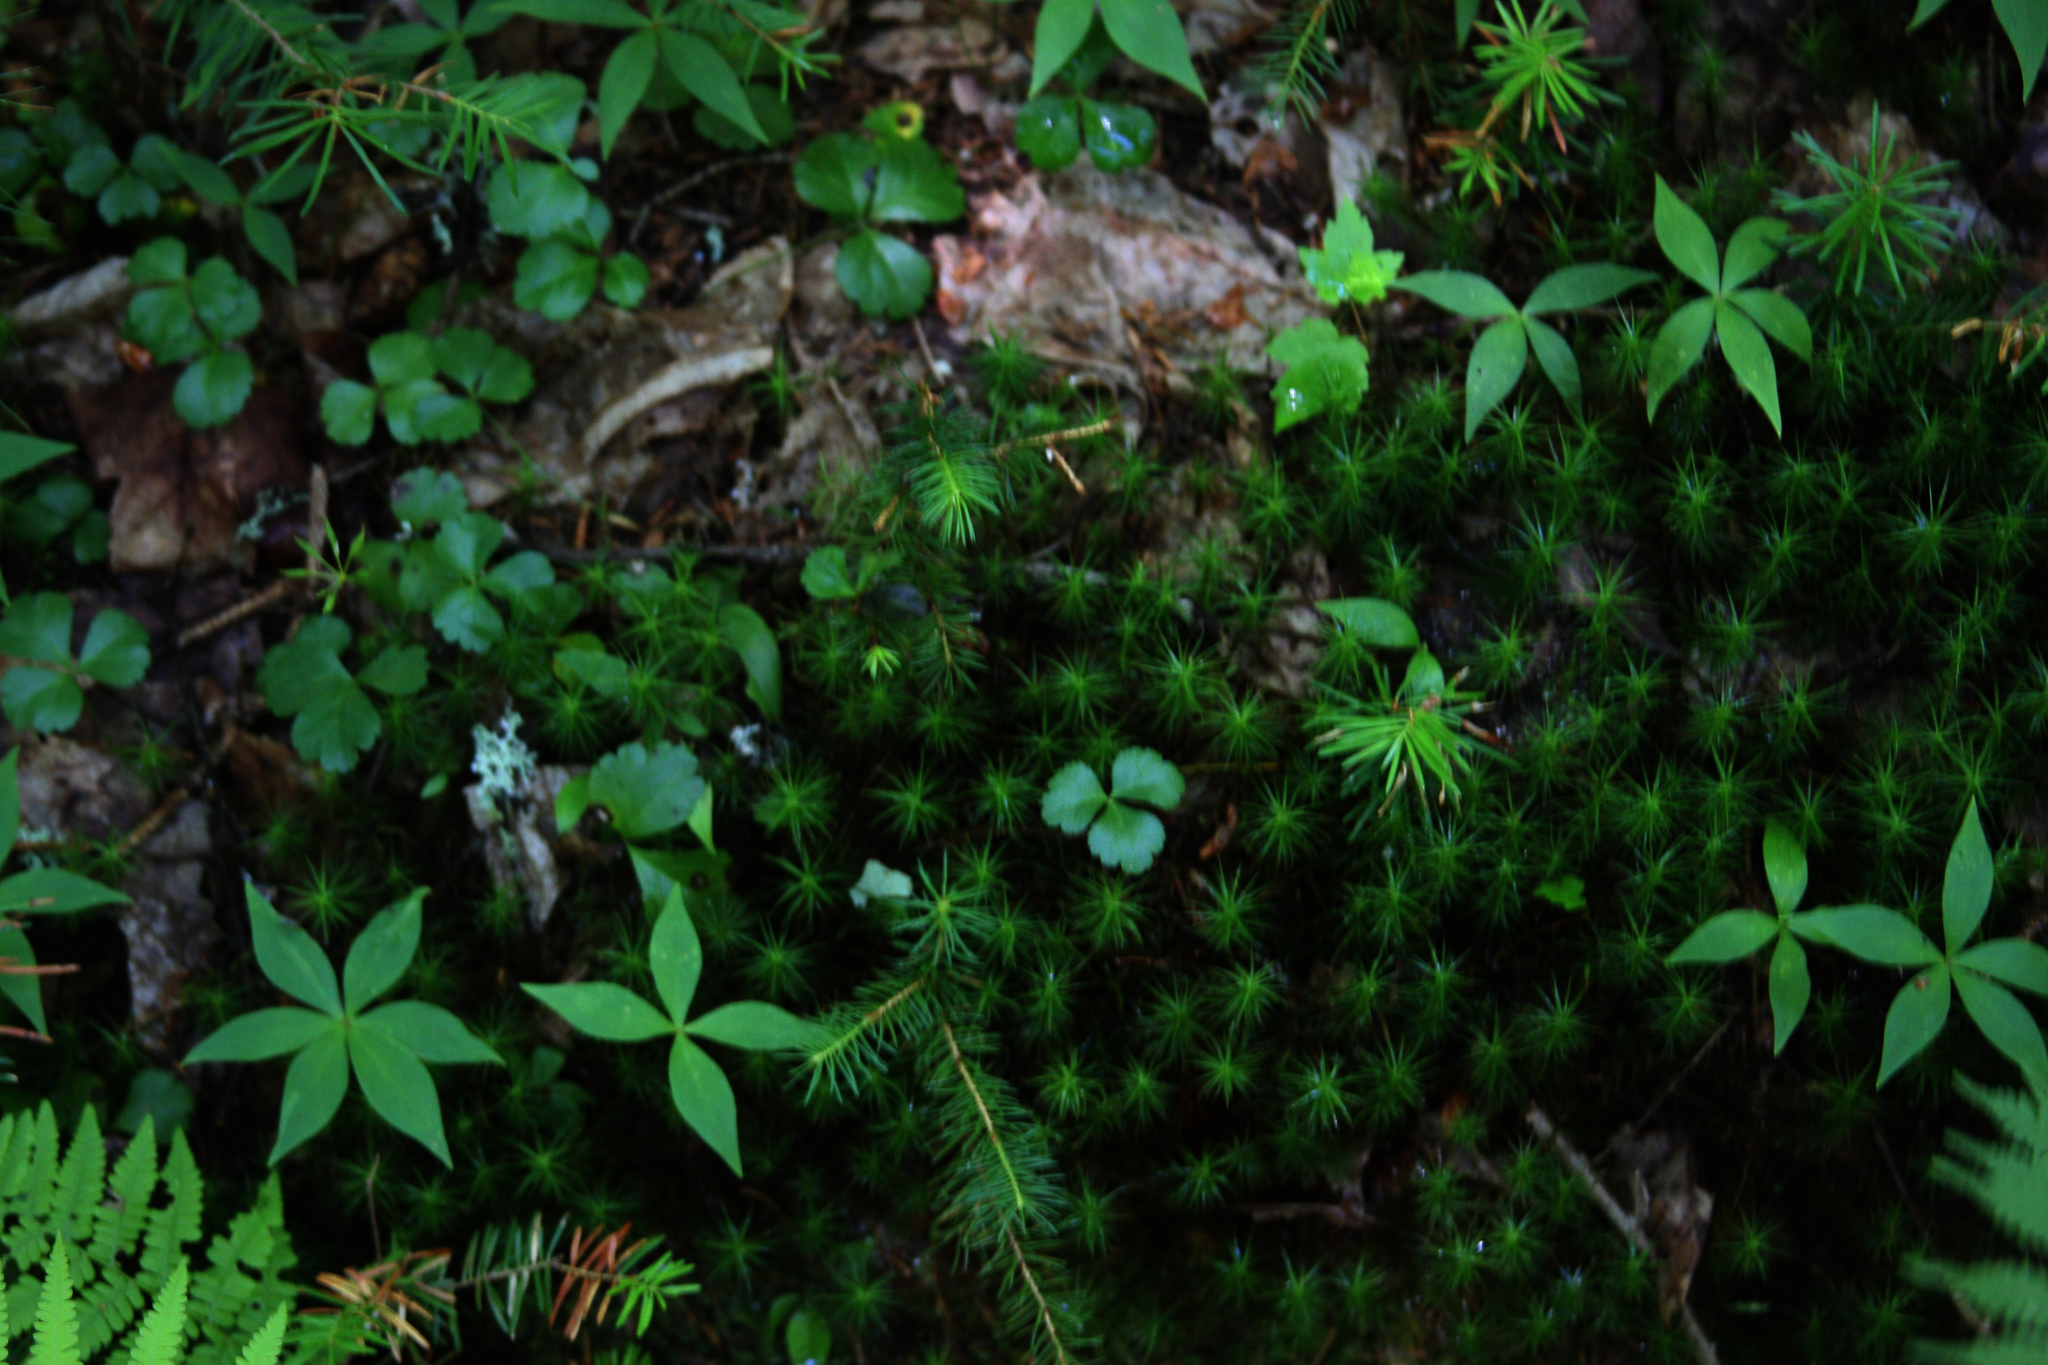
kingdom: Plantae
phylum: Tracheophyta
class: Magnoliopsida
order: Ranunculales
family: Ranunculaceae
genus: Coptis
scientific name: Coptis trifolia
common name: Canker-root
